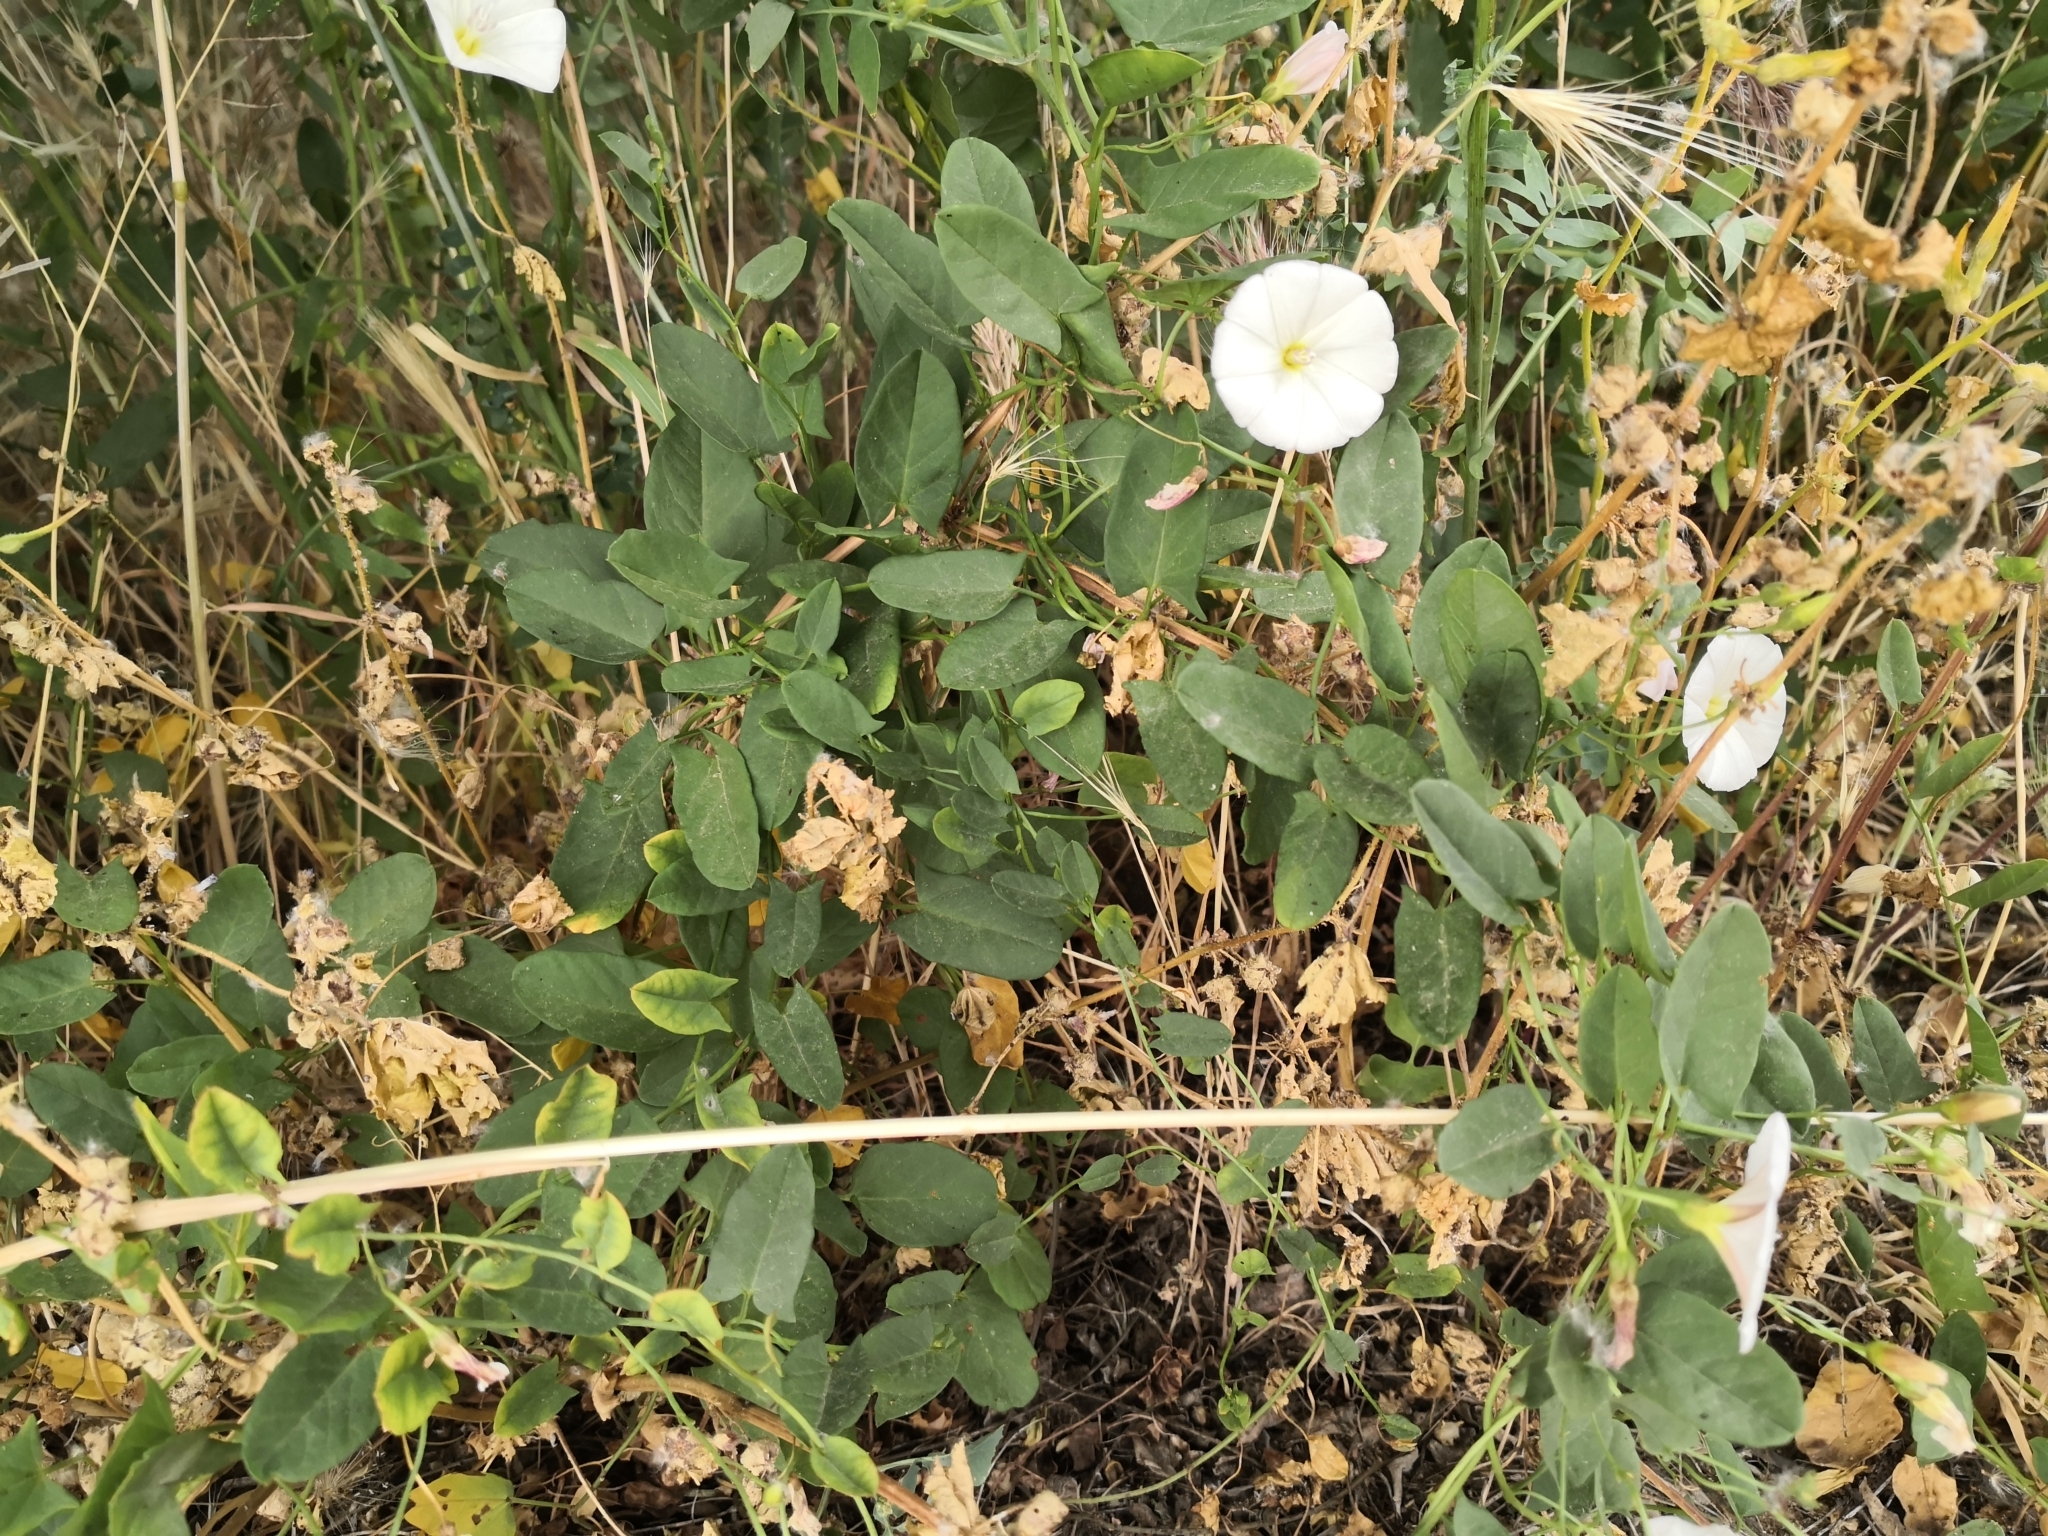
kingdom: Plantae
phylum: Tracheophyta
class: Magnoliopsida
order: Solanales
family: Convolvulaceae
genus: Convolvulus
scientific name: Convolvulus arvensis
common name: Field bindweed
